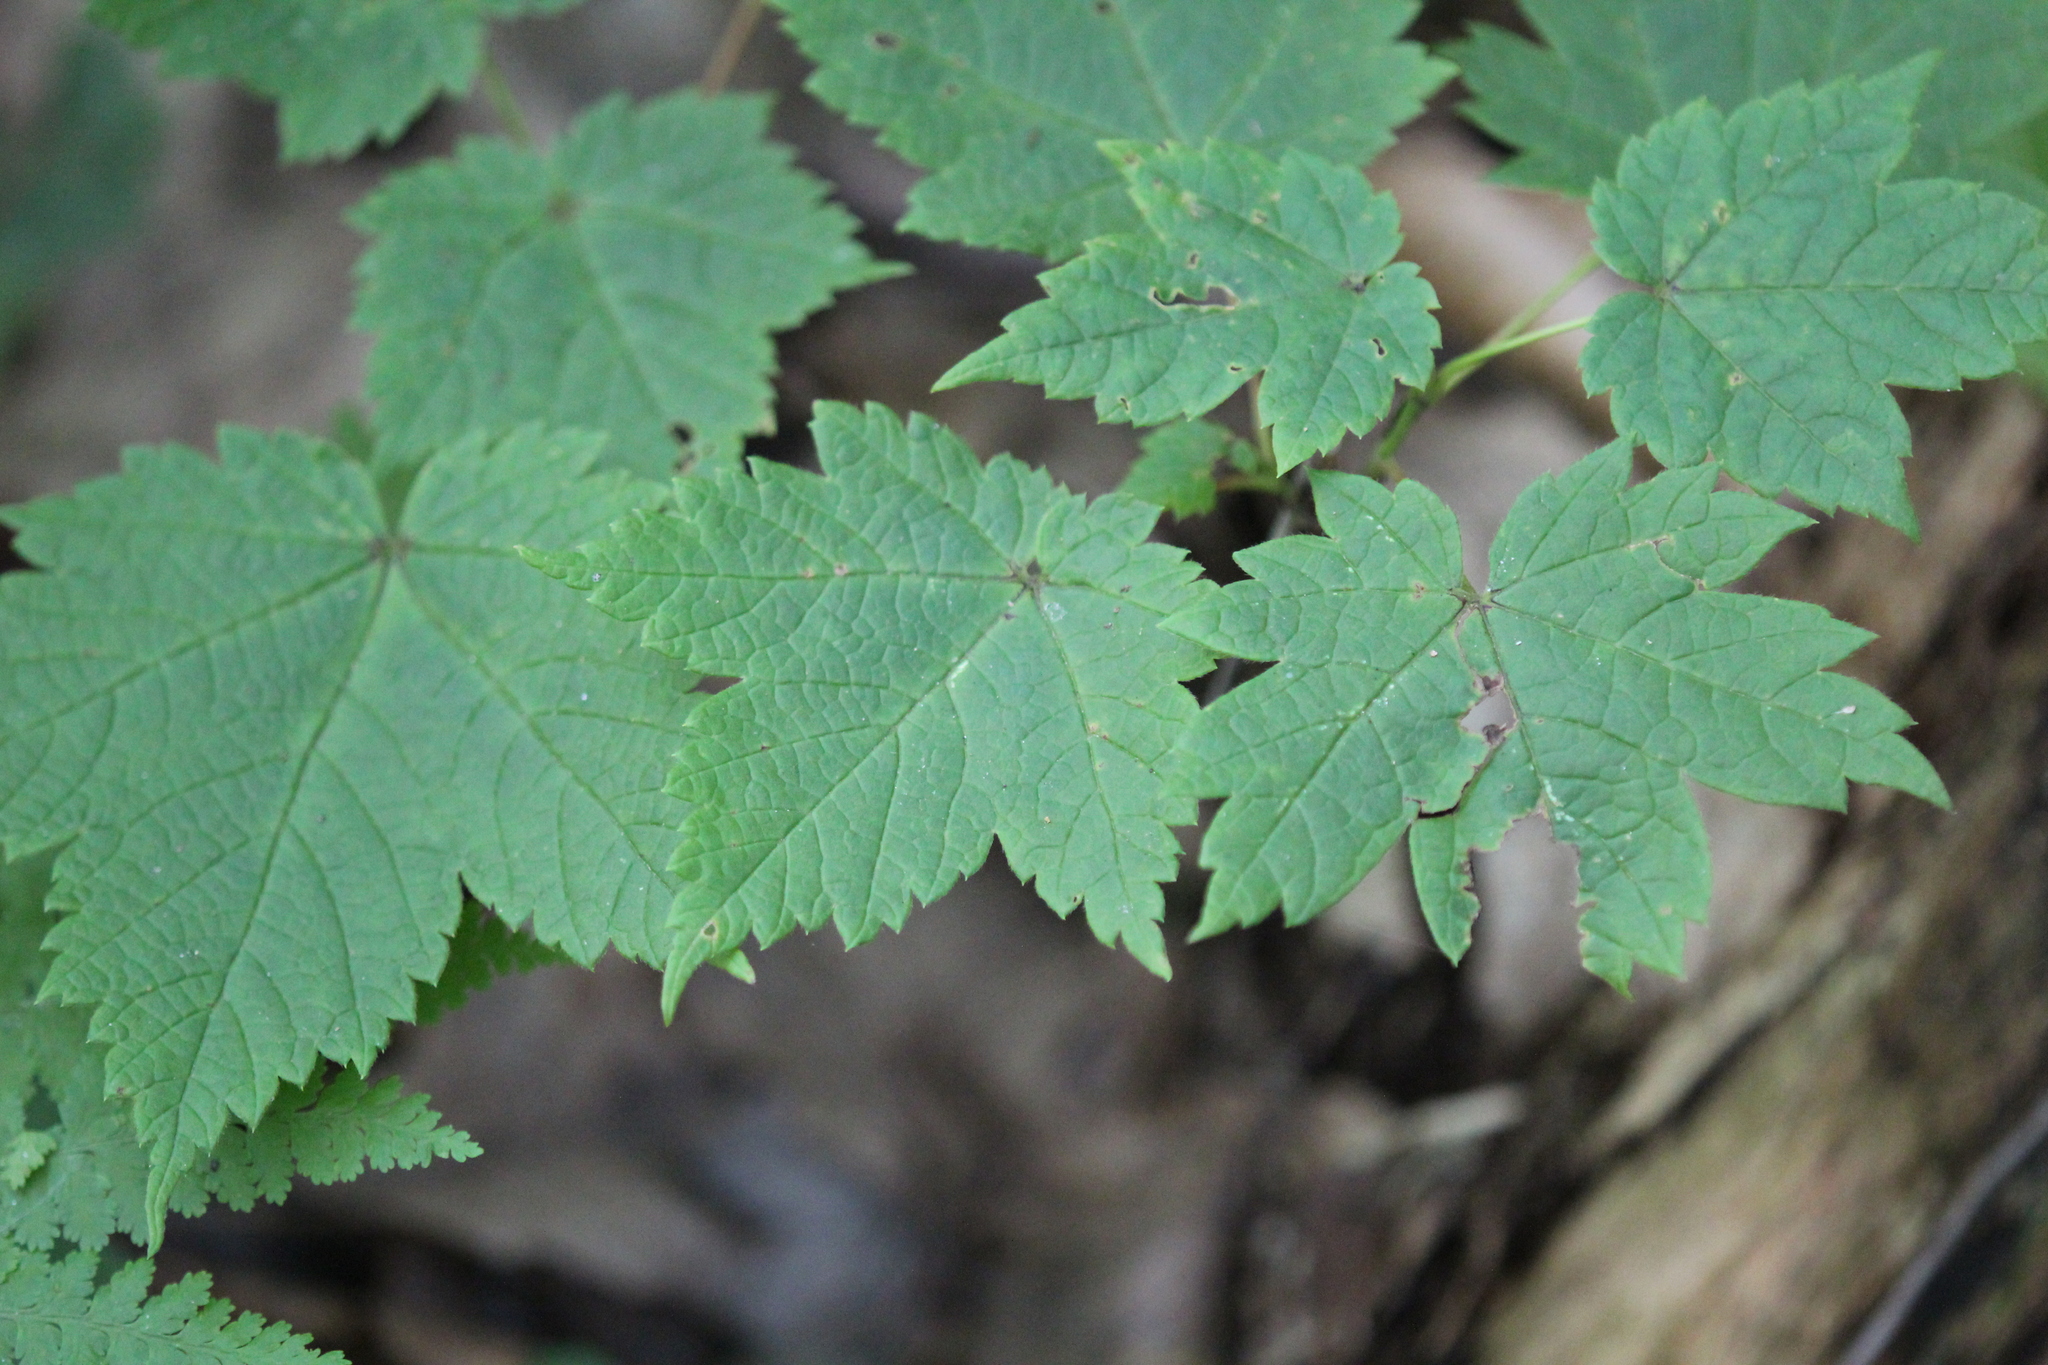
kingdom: Plantae
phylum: Tracheophyta
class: Magnoliopsida
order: Sapindales
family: Sapindaceae
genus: Acer
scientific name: Acer spicatum
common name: Mountain maple
